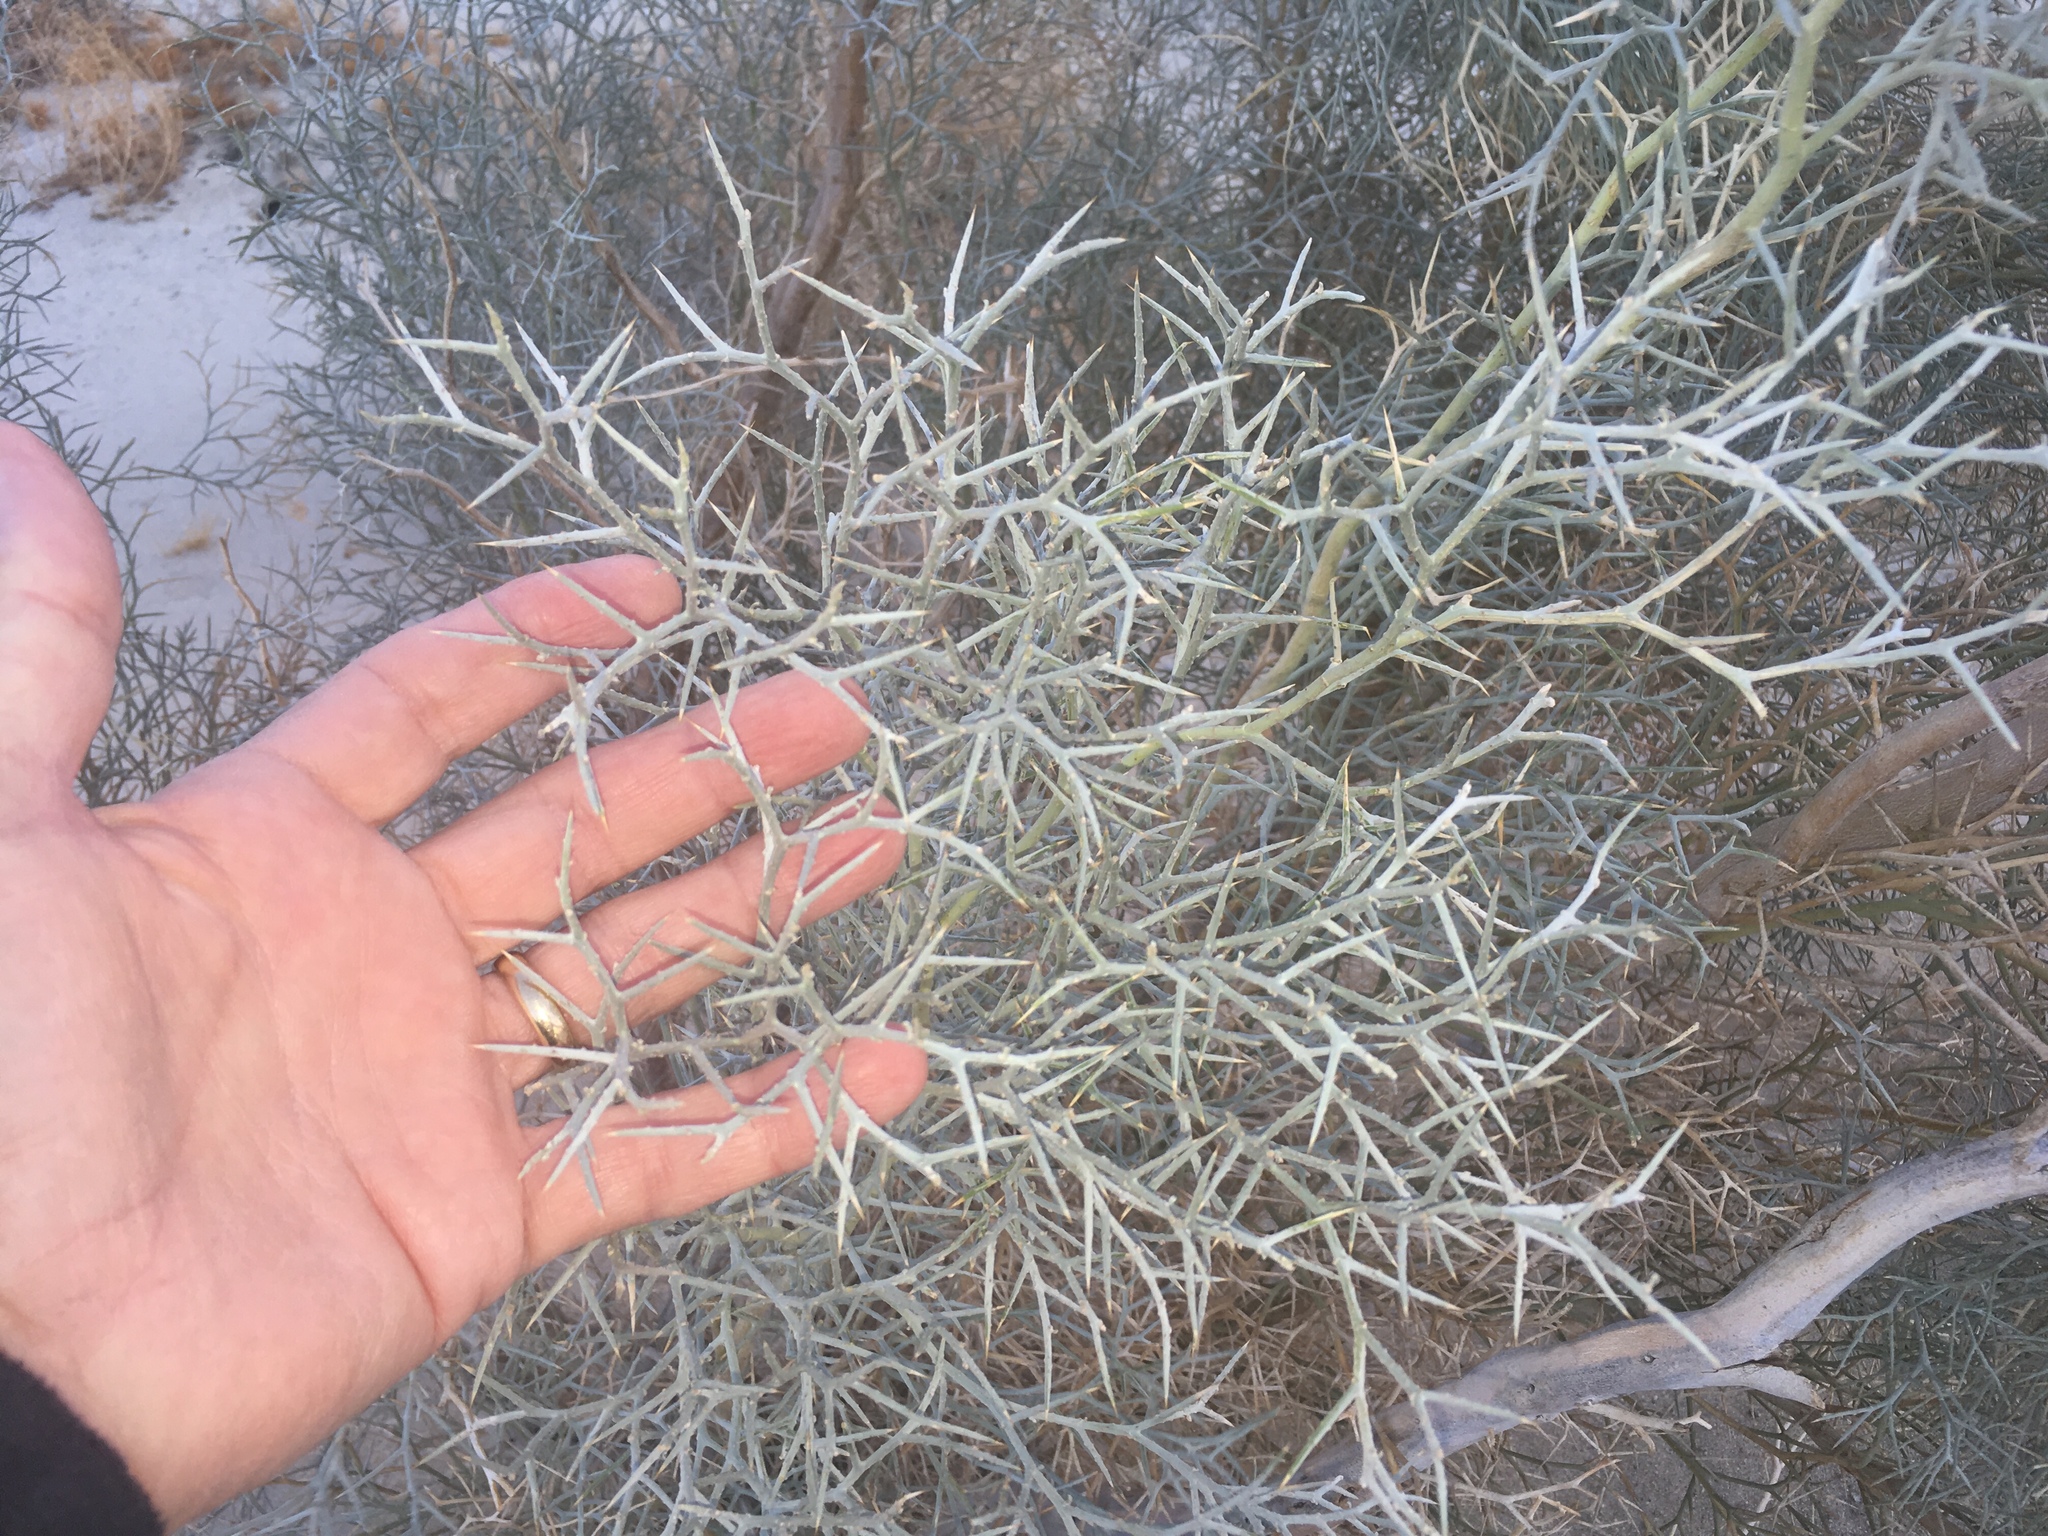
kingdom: Plantae
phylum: Tracheophyta
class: Magnoliopsida
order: Fabales
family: Fabaceae
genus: Psorothamnus
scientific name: Psorothamnus spinosus
